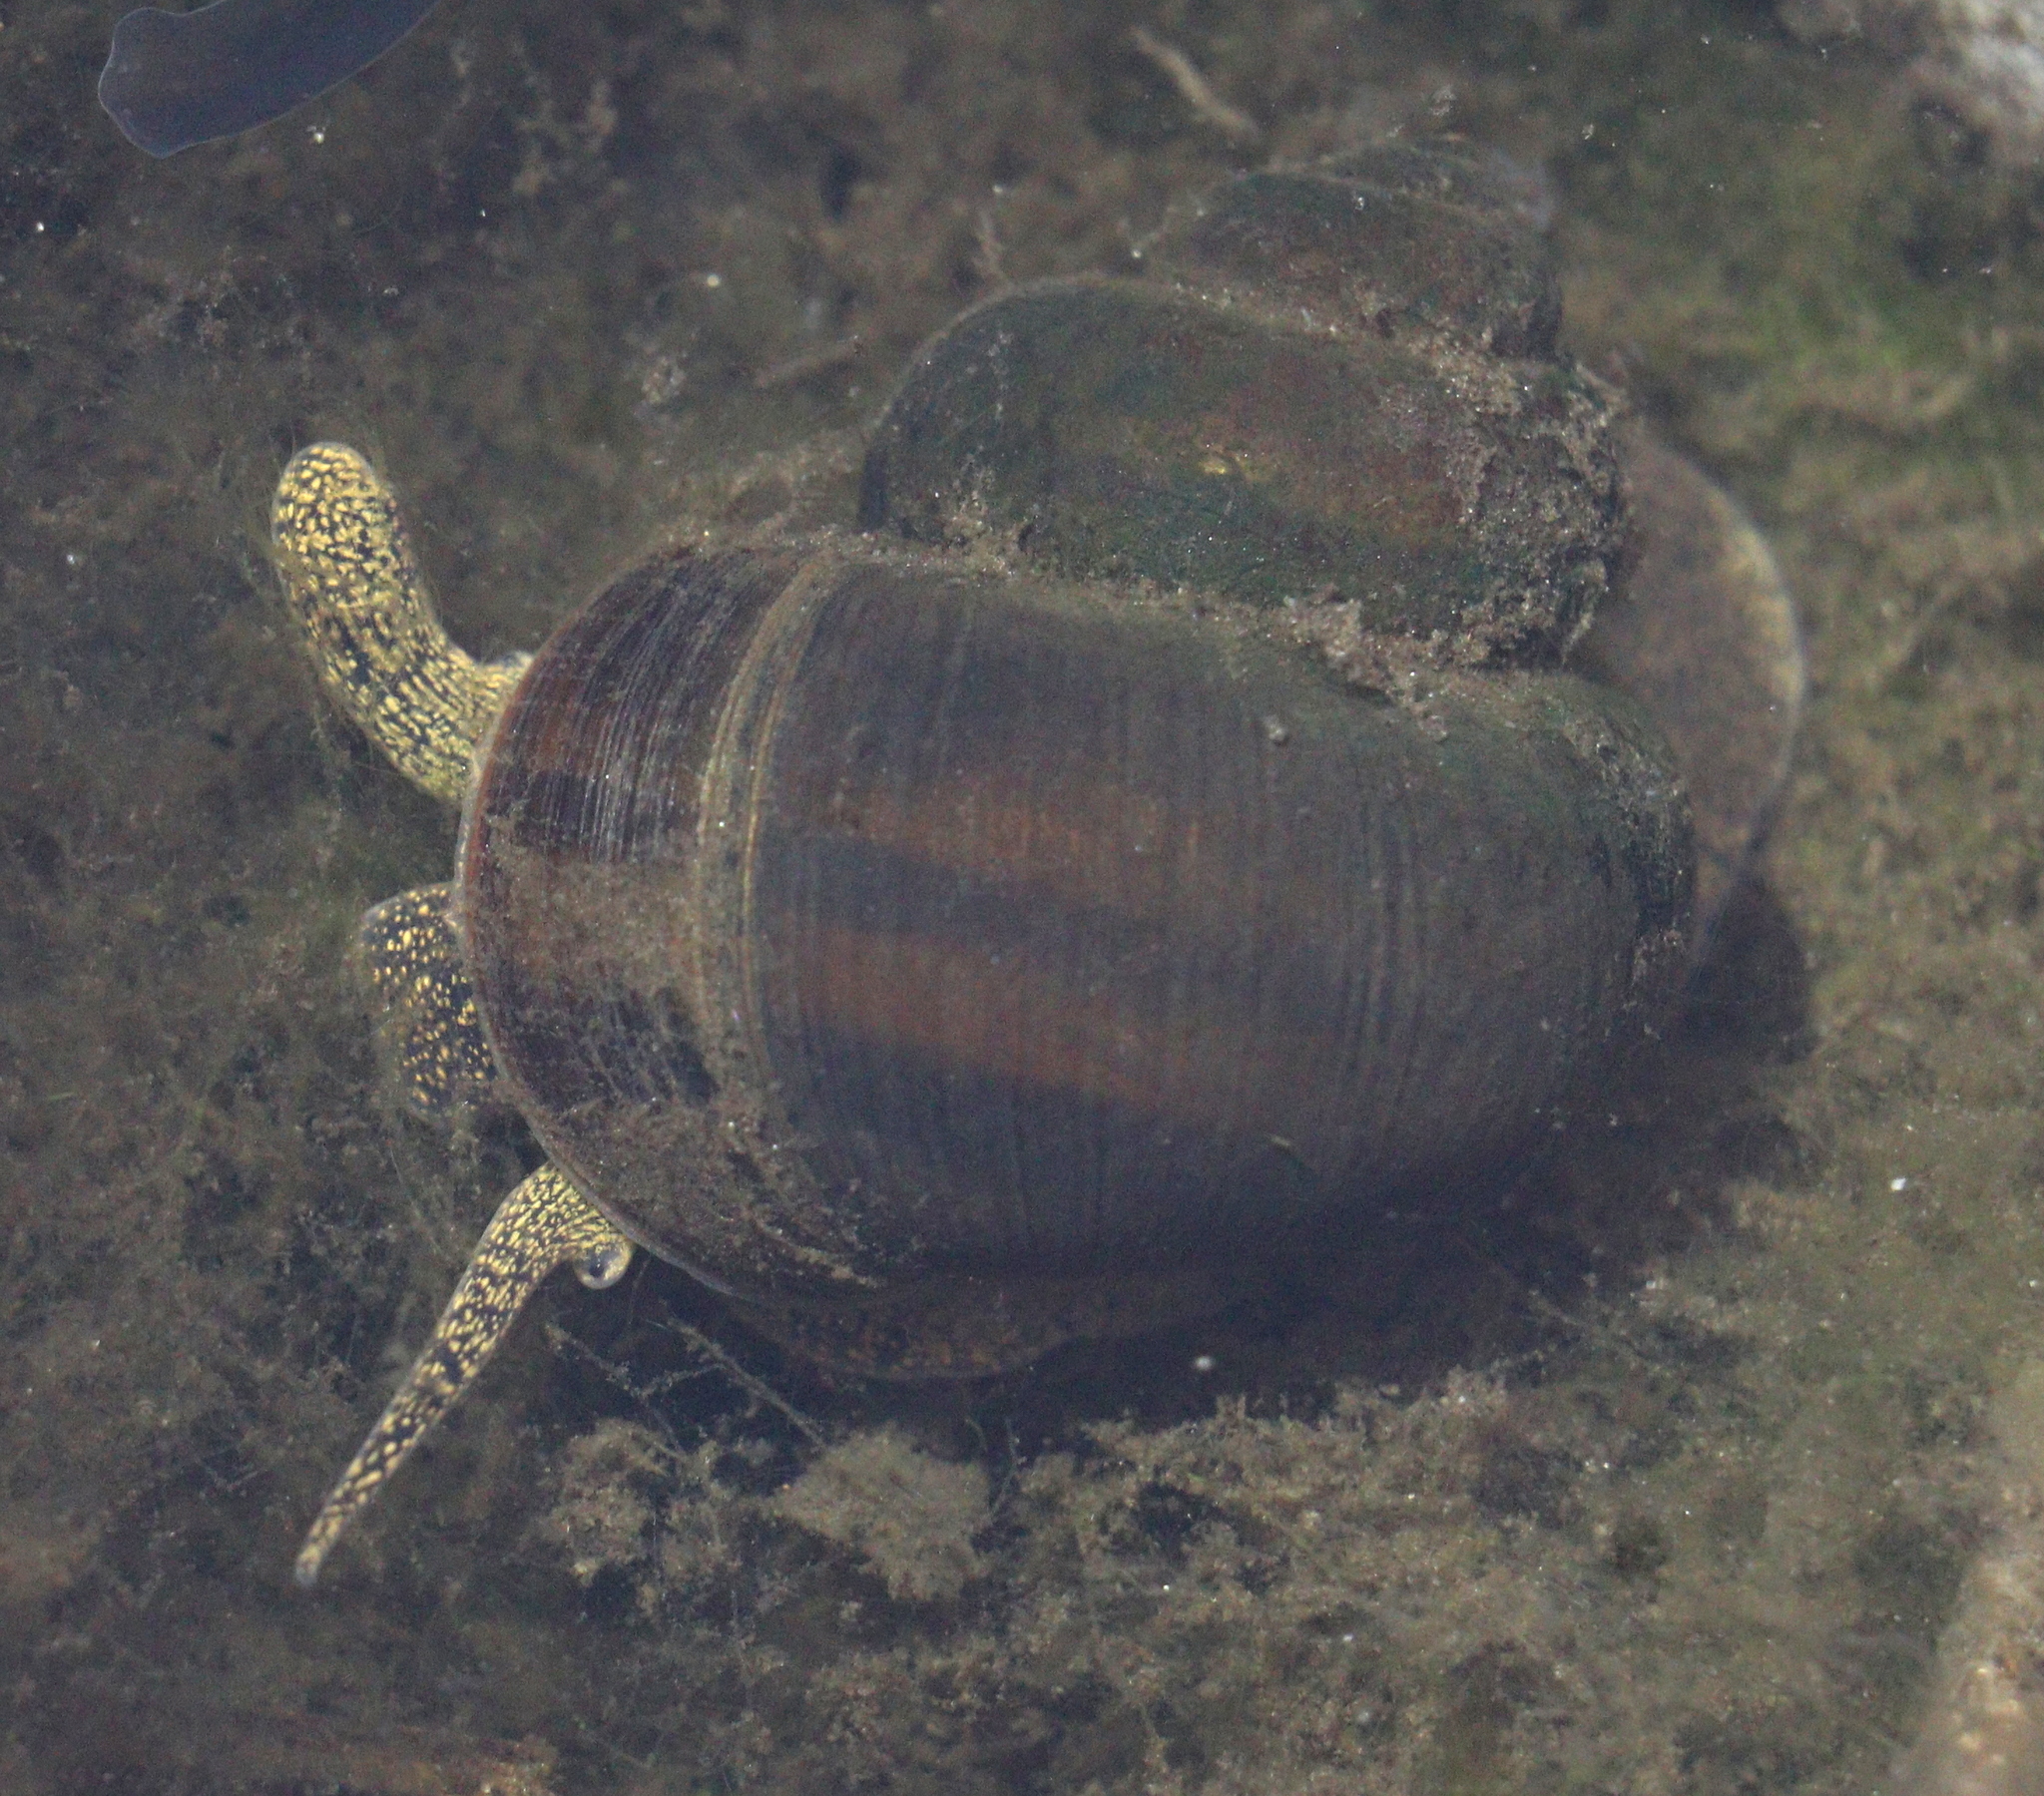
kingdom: Animalia
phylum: Mollusca
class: Gastropoda
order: Architaenioglossa
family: Viviparidae
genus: Viviparus
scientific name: Viviparus contectus
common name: Lister's river snail
